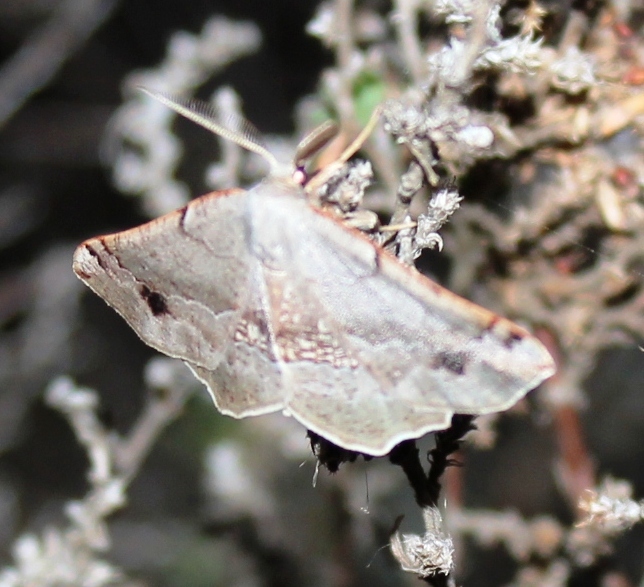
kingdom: Animalia
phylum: Arthropoda
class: Insecta
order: Lepidoptera
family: Geometridae
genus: Drepanogynis
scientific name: Drepanogynis mixtaria
